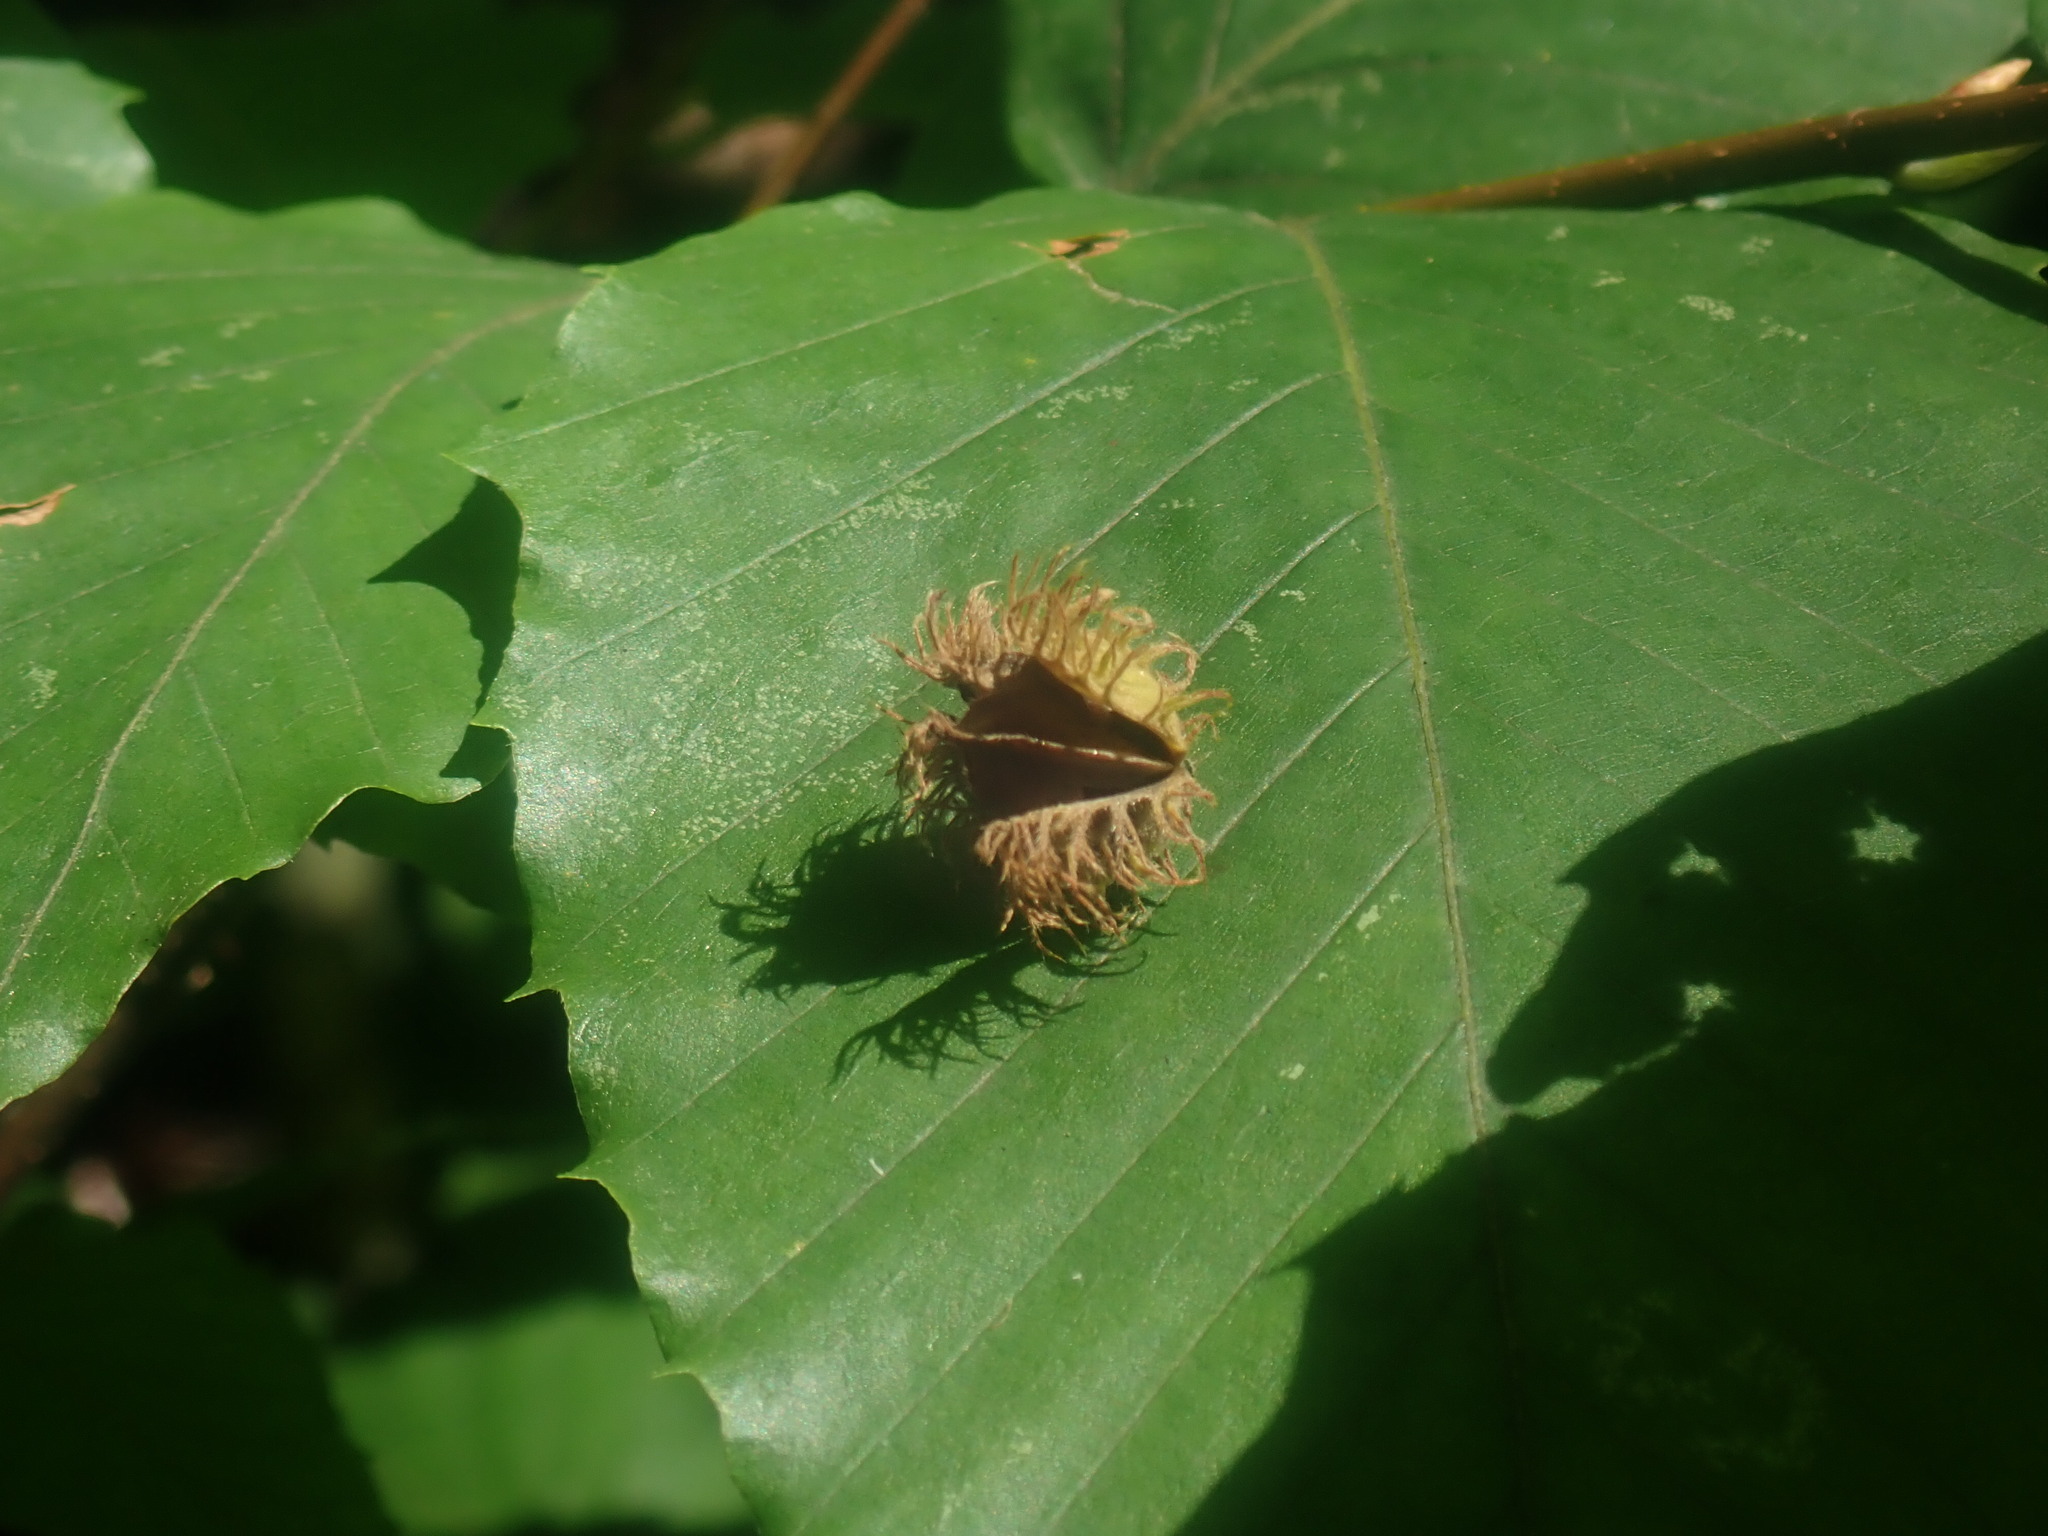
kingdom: Plantae
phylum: Tracheophyta
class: Magnoliopsida
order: Fagales
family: Fagaceae
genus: Fagus
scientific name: Fagus grandifolia
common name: American beech
